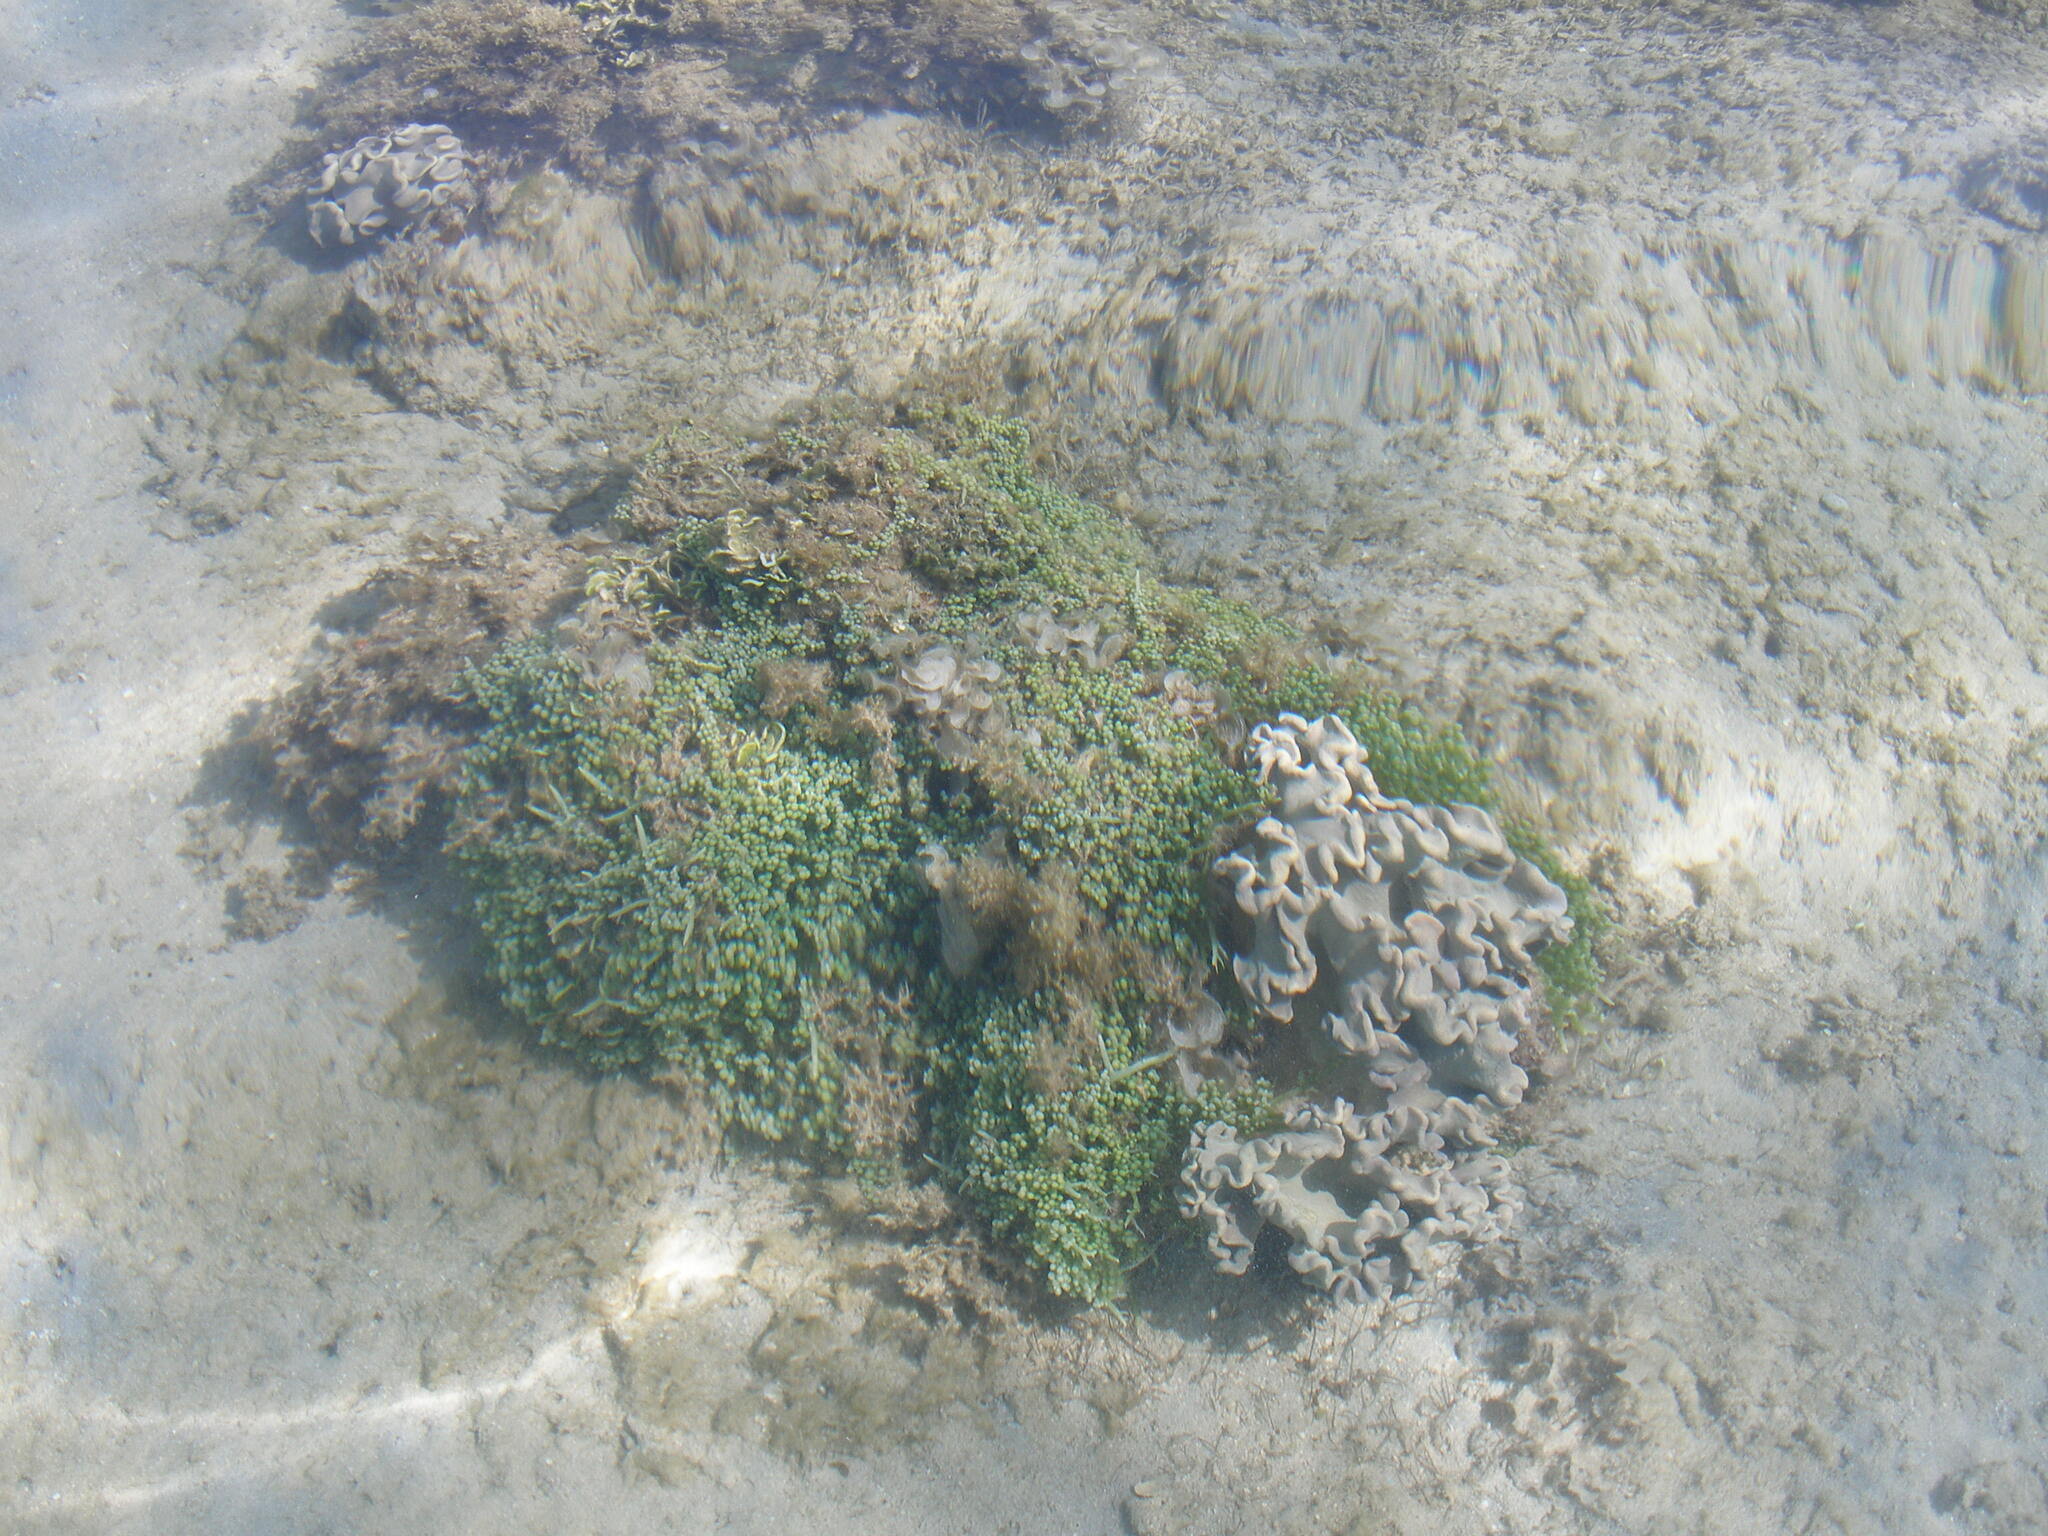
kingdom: Plantae
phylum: Chlorophyta
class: Ulvophyceae
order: Bryopsidales
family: Caulerpaceae
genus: Caulerpa
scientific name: Caulerpa racemosa
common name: Green grape algae
